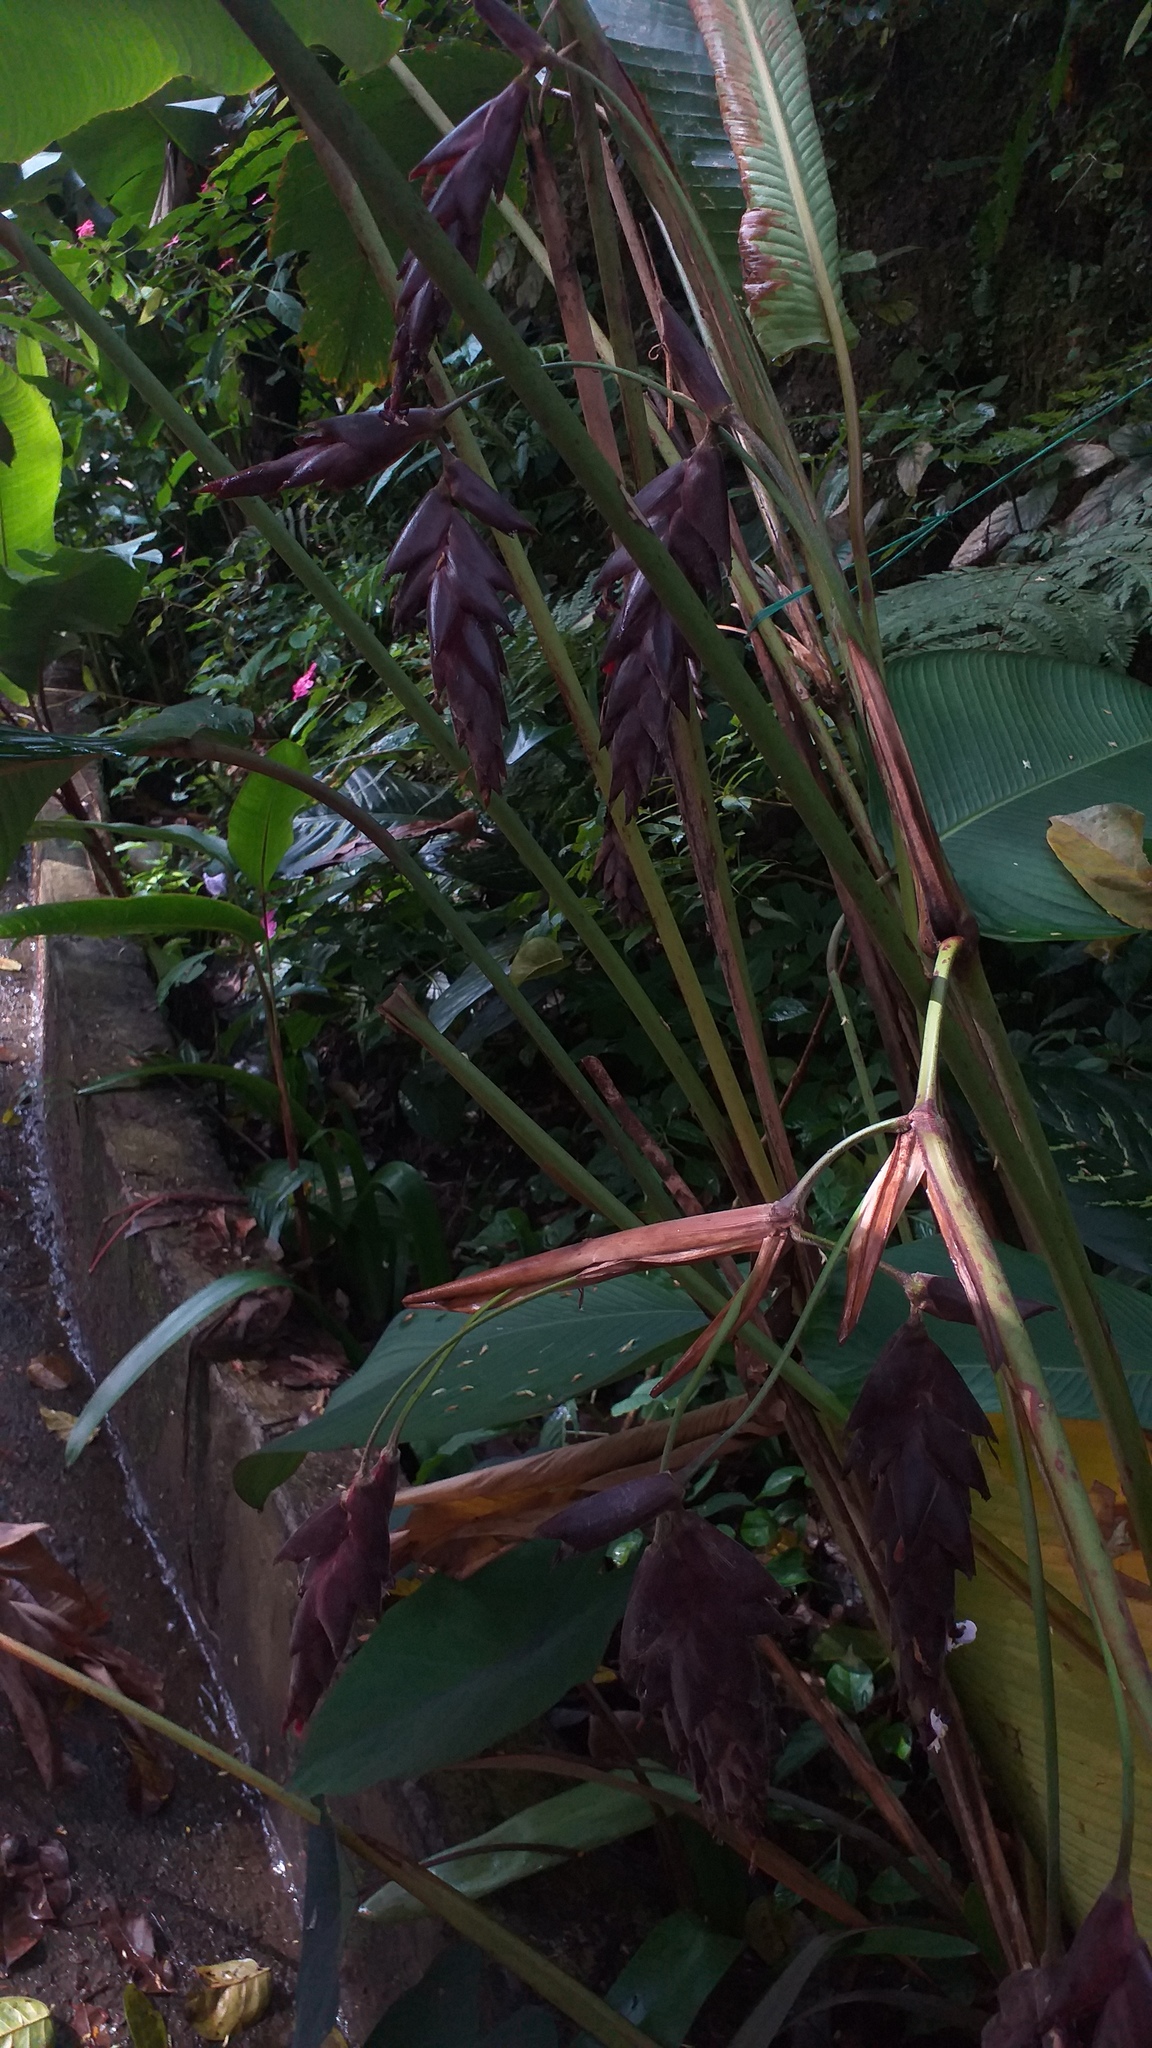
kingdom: Plantae
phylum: Tracheophyta
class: Liliopsida
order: Zingiberales
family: Marantaceae
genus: Calathea
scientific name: Calathea erythrolepis
